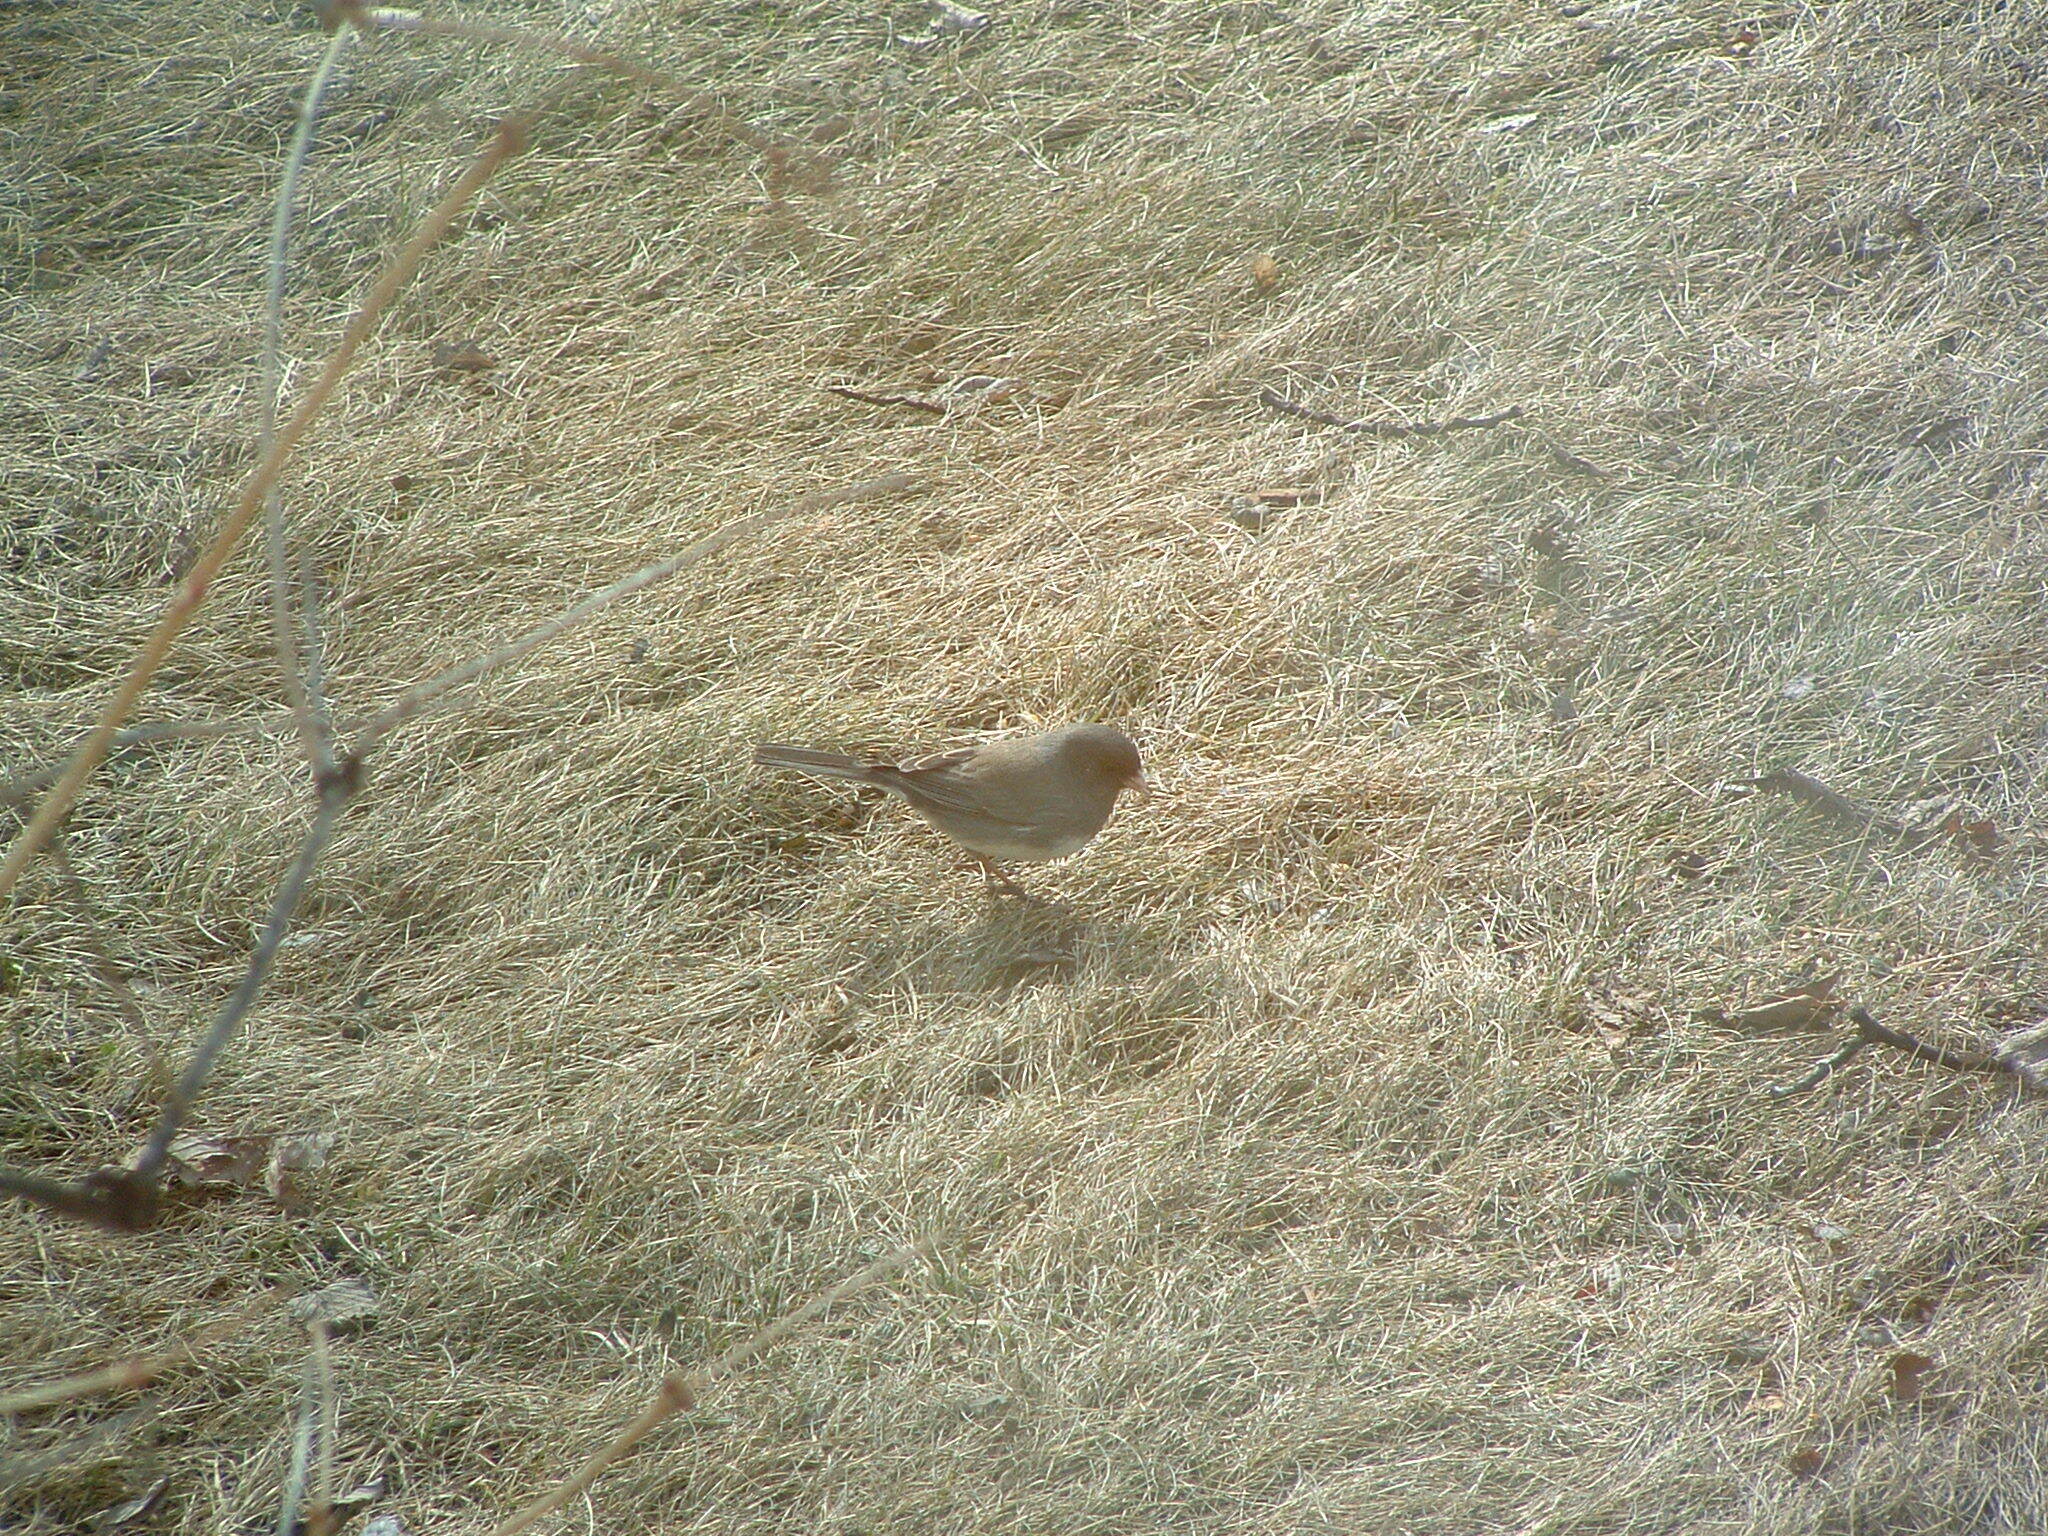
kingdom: Animalia
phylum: Chordata
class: Aves
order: Passeriformes
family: Passerellidae
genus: Junco
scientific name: Junco hyemalis
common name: Dark-eyed junco
